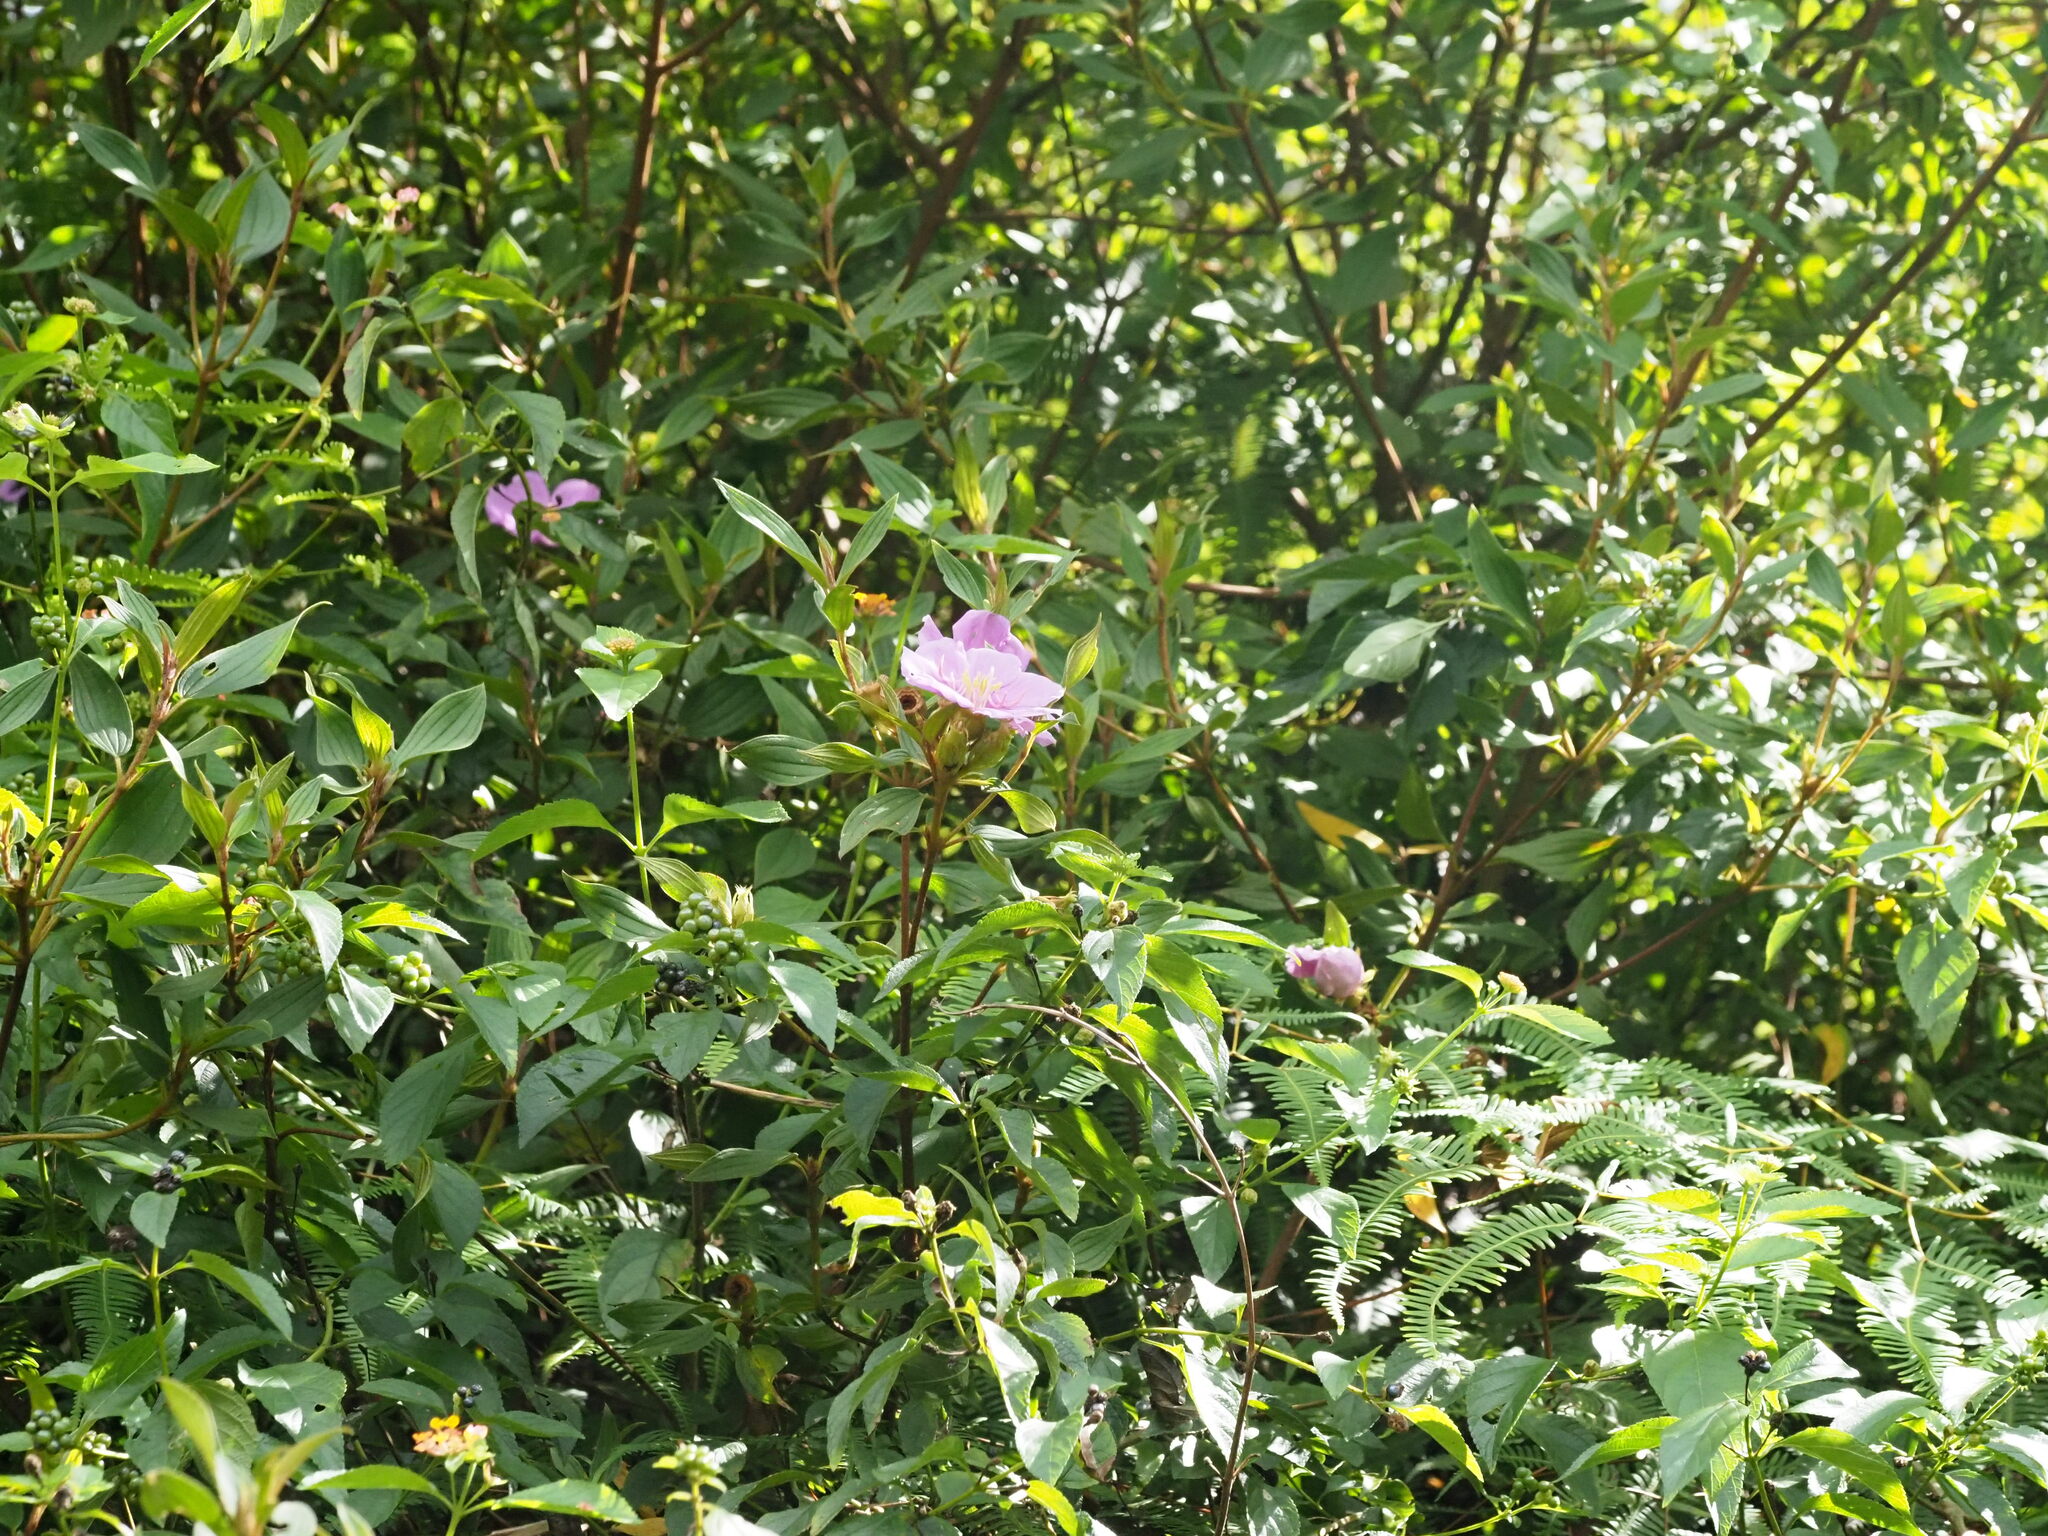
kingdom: Plantae
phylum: Tracheophyta
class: Magnoliopsida
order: Myrtales
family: Melastomataceae
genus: Melastoma
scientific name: Melastoma malabathricum
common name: Indian-rhododendron
